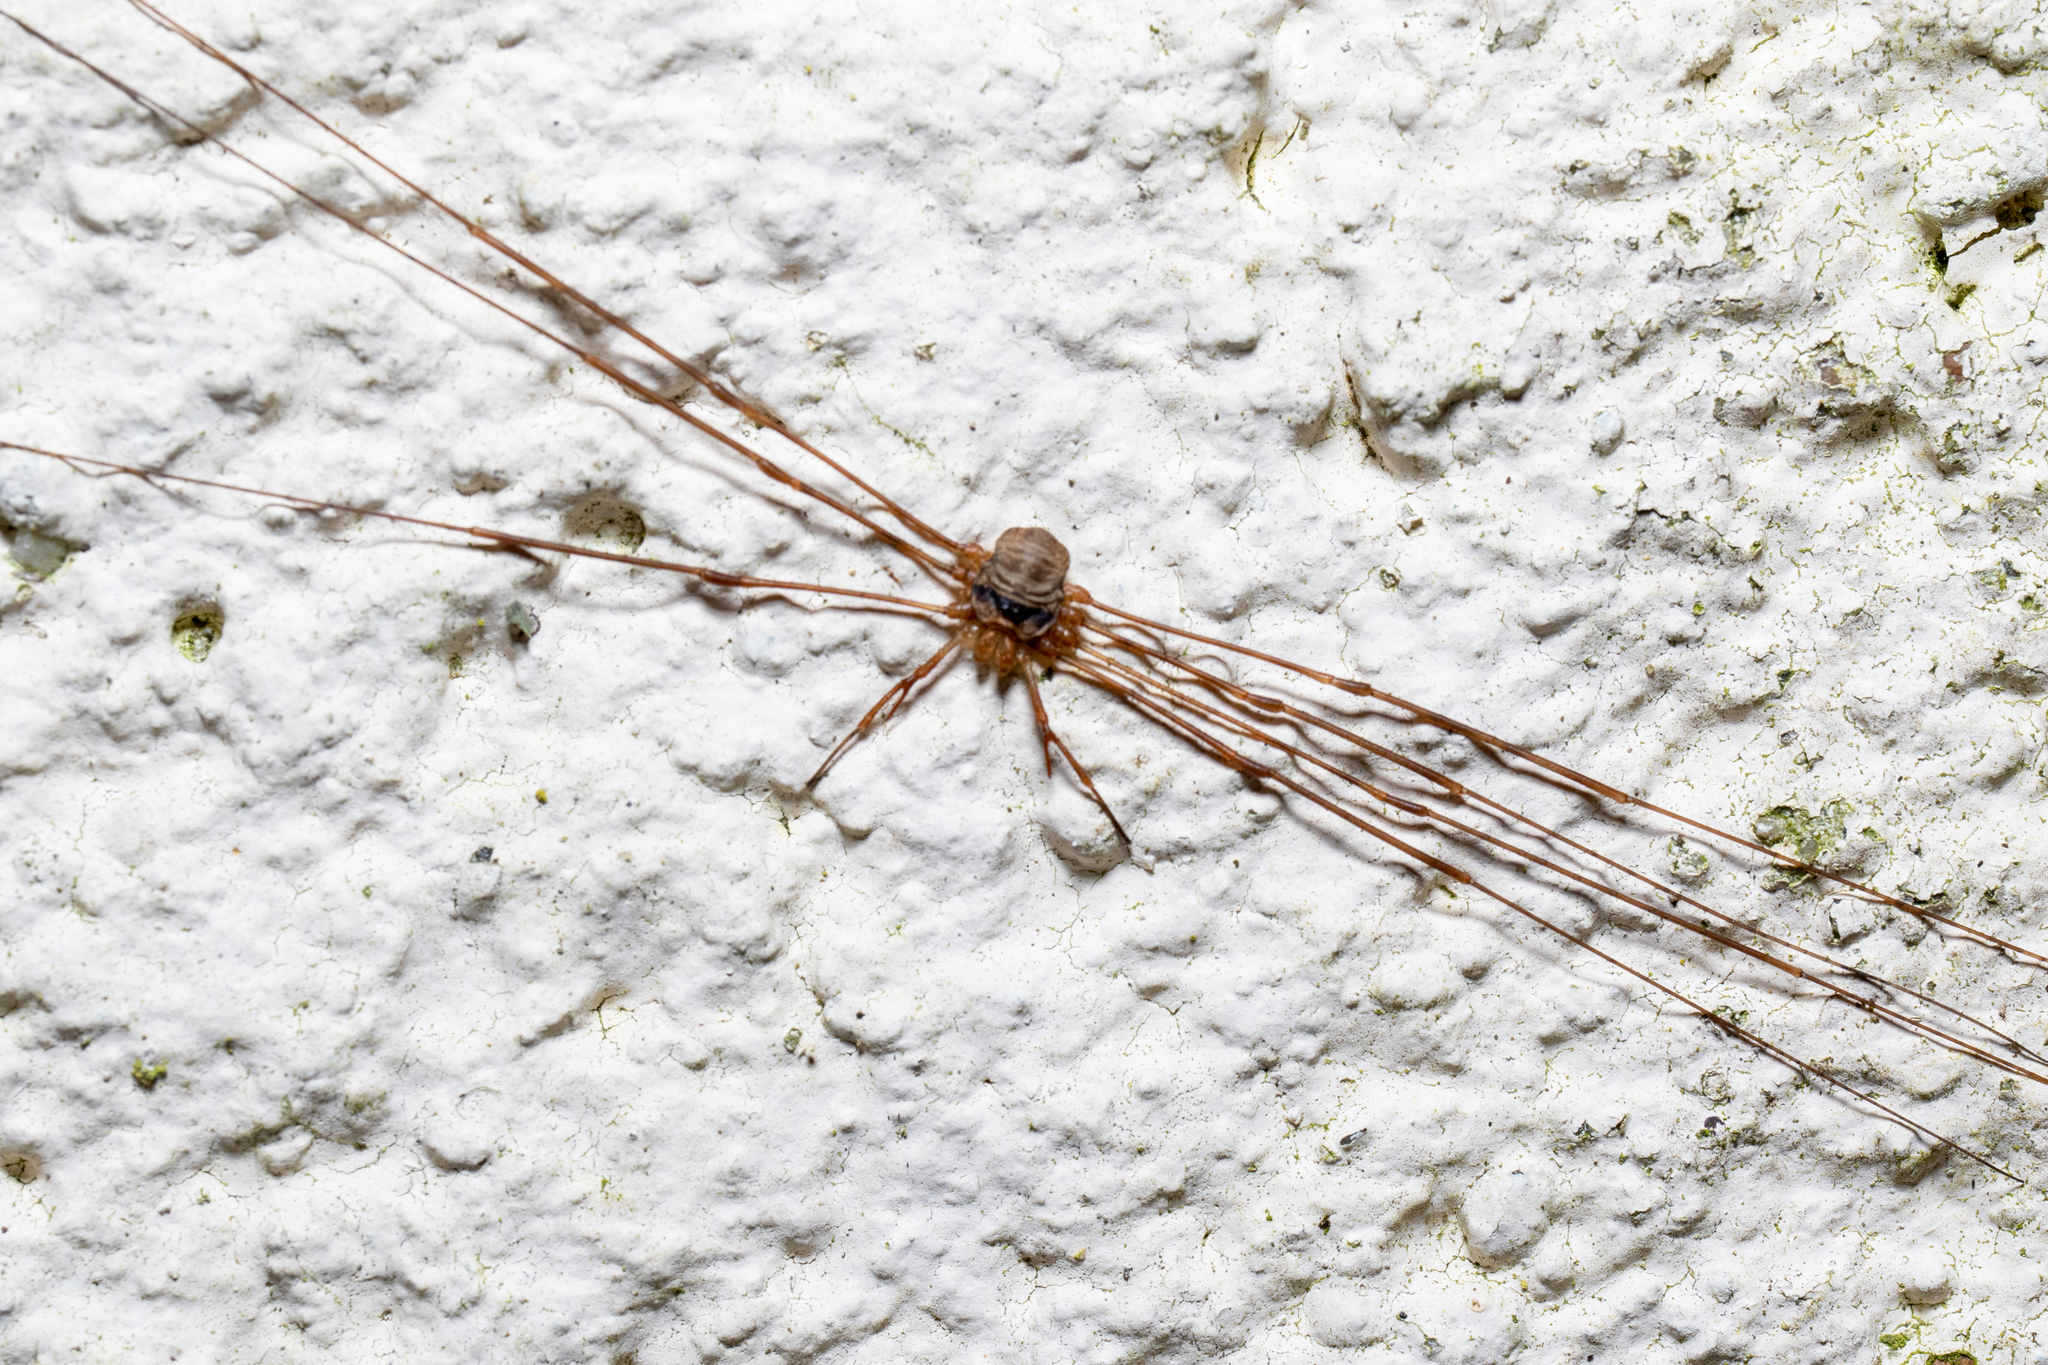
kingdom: Animalia
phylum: Arthropoda
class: Arachnida
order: Opiliones
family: Phalangiidae
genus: Dicranopalpus
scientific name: Dicranopalpus ramosus
